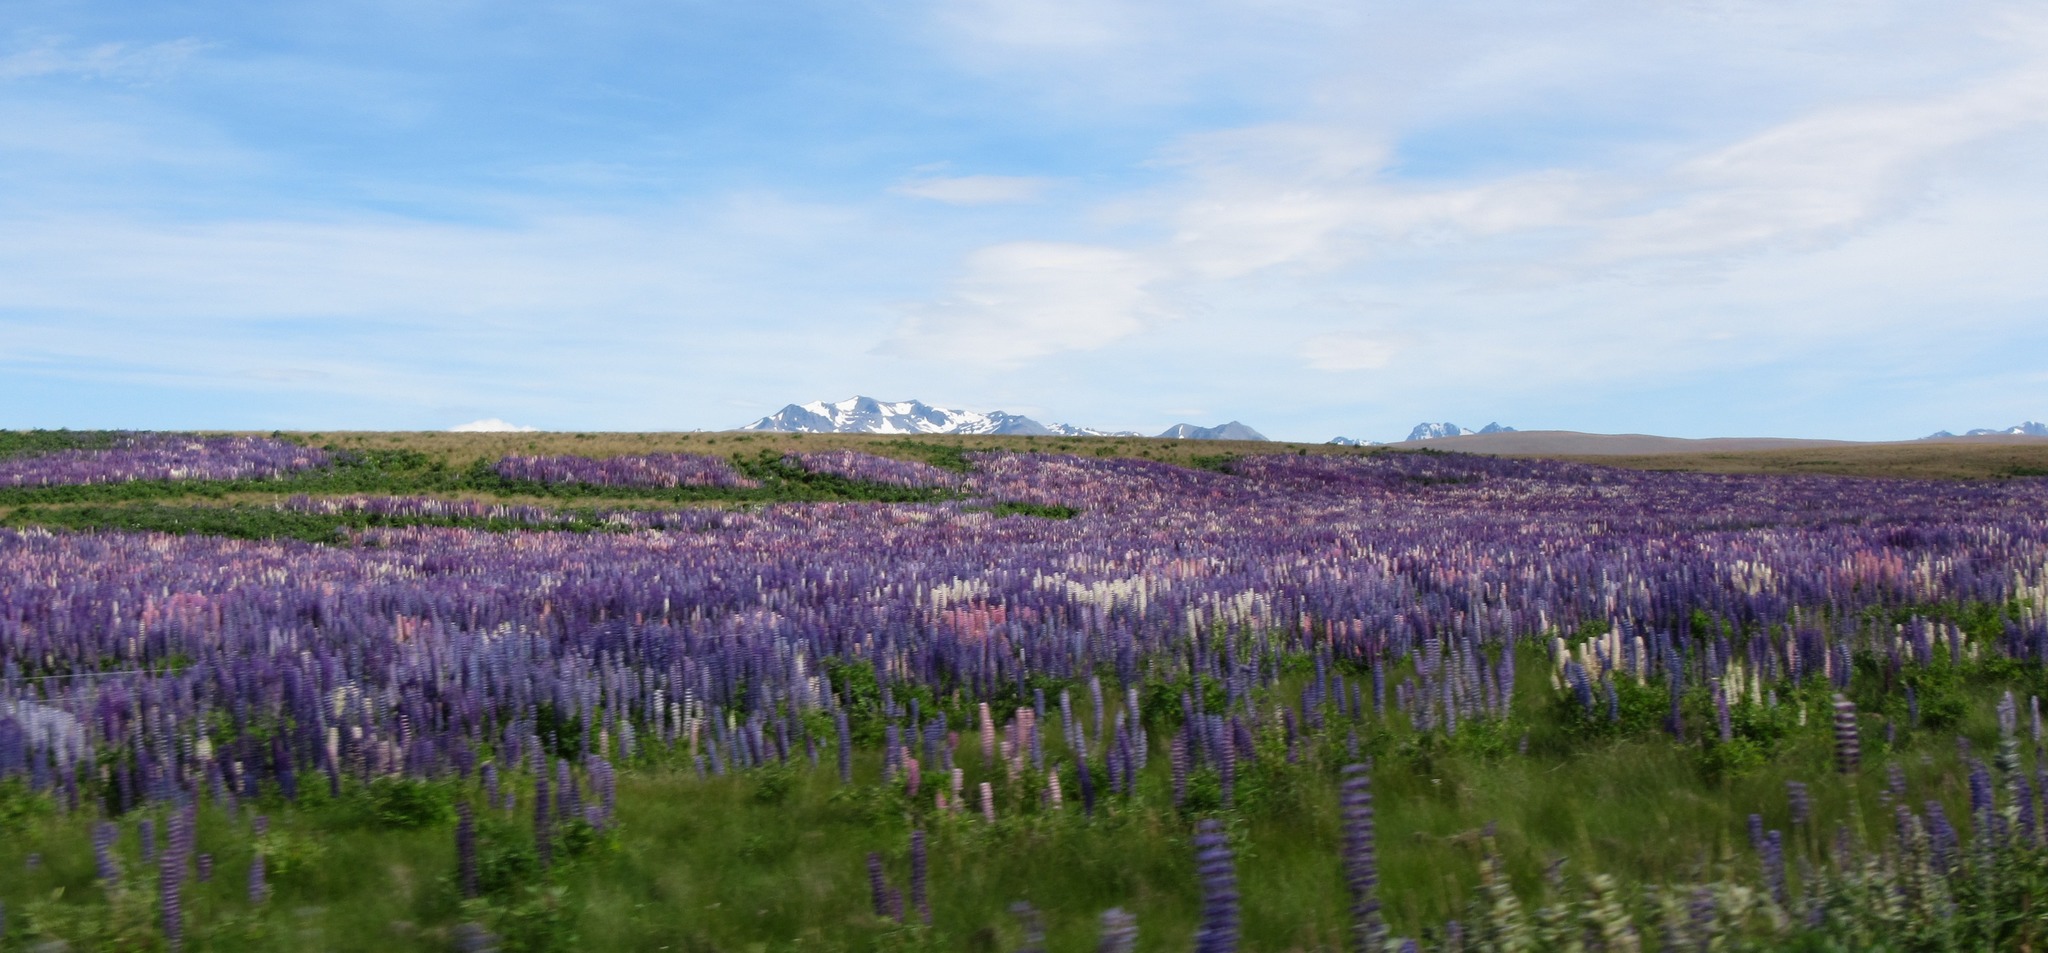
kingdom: Plantae
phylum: Tracheophyta
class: Magnoliopsida
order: Fabales
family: Fabaceae
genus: Lupinus
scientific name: Lupinus polyphyllus
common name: Garden lupin
